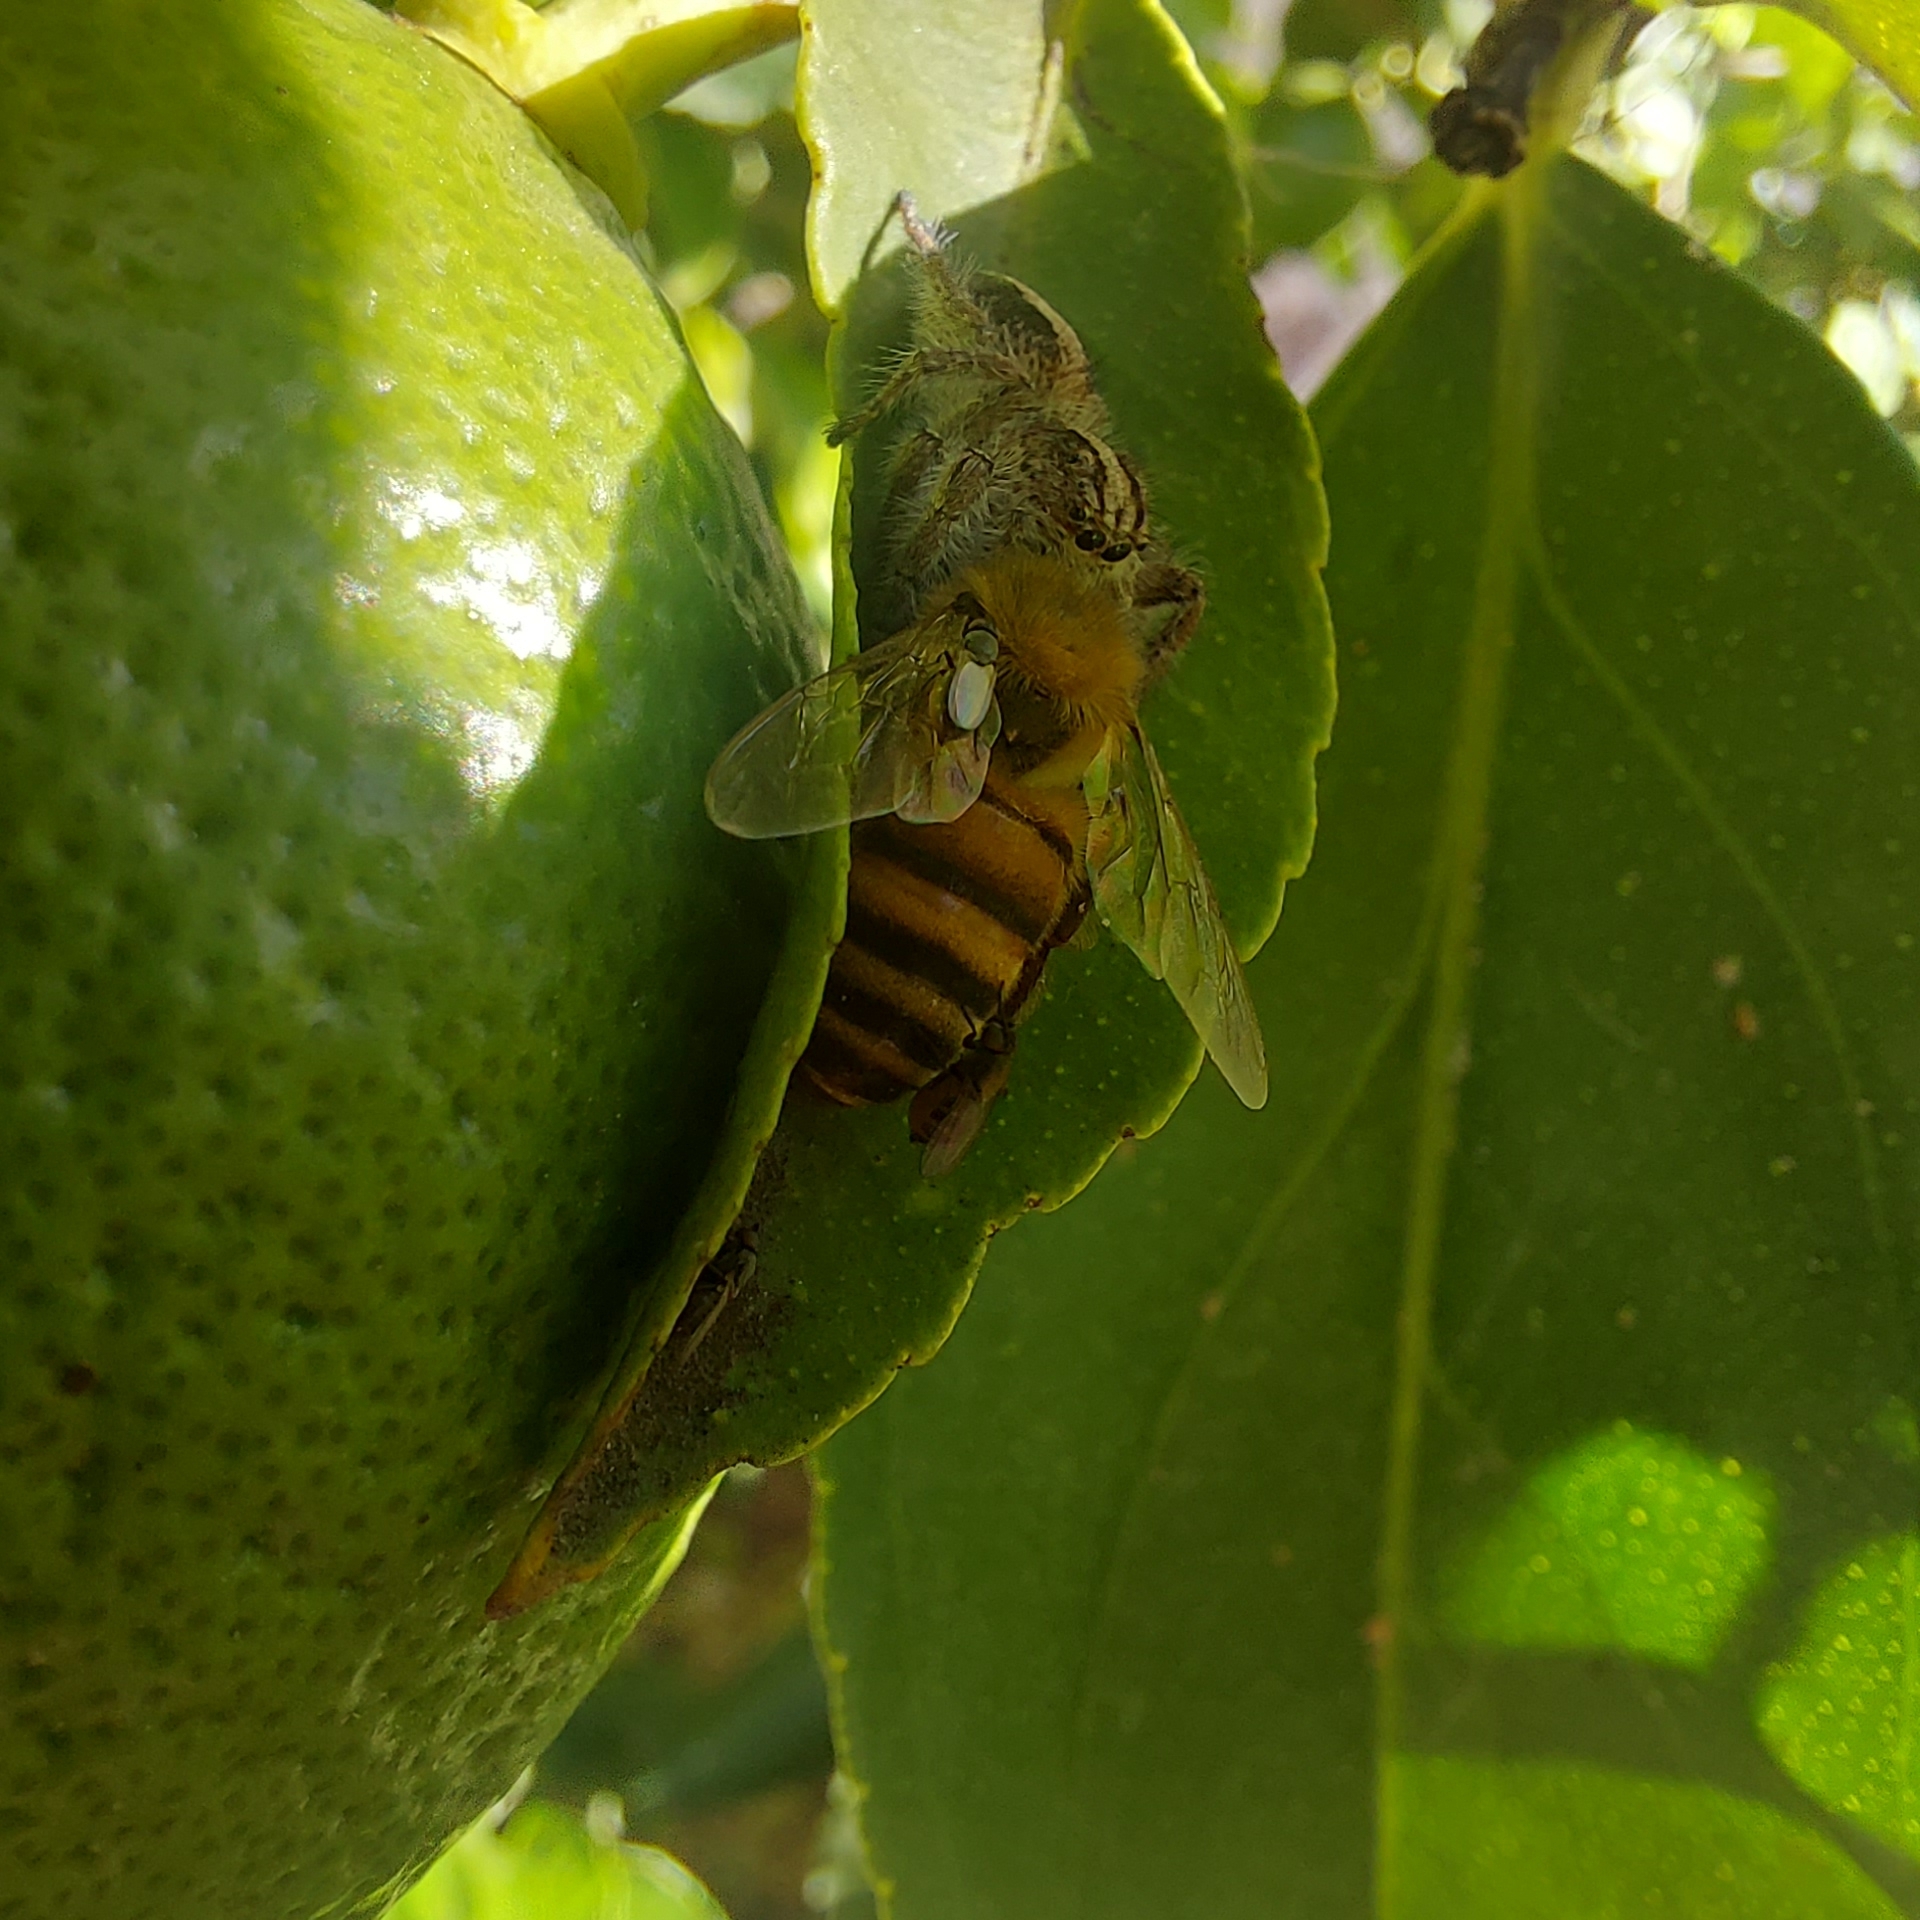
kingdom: Animalia
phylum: Arthropoda
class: Arachnida
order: Araneae
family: Salticidae
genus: Megafreya
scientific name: Megafreya sutrix
